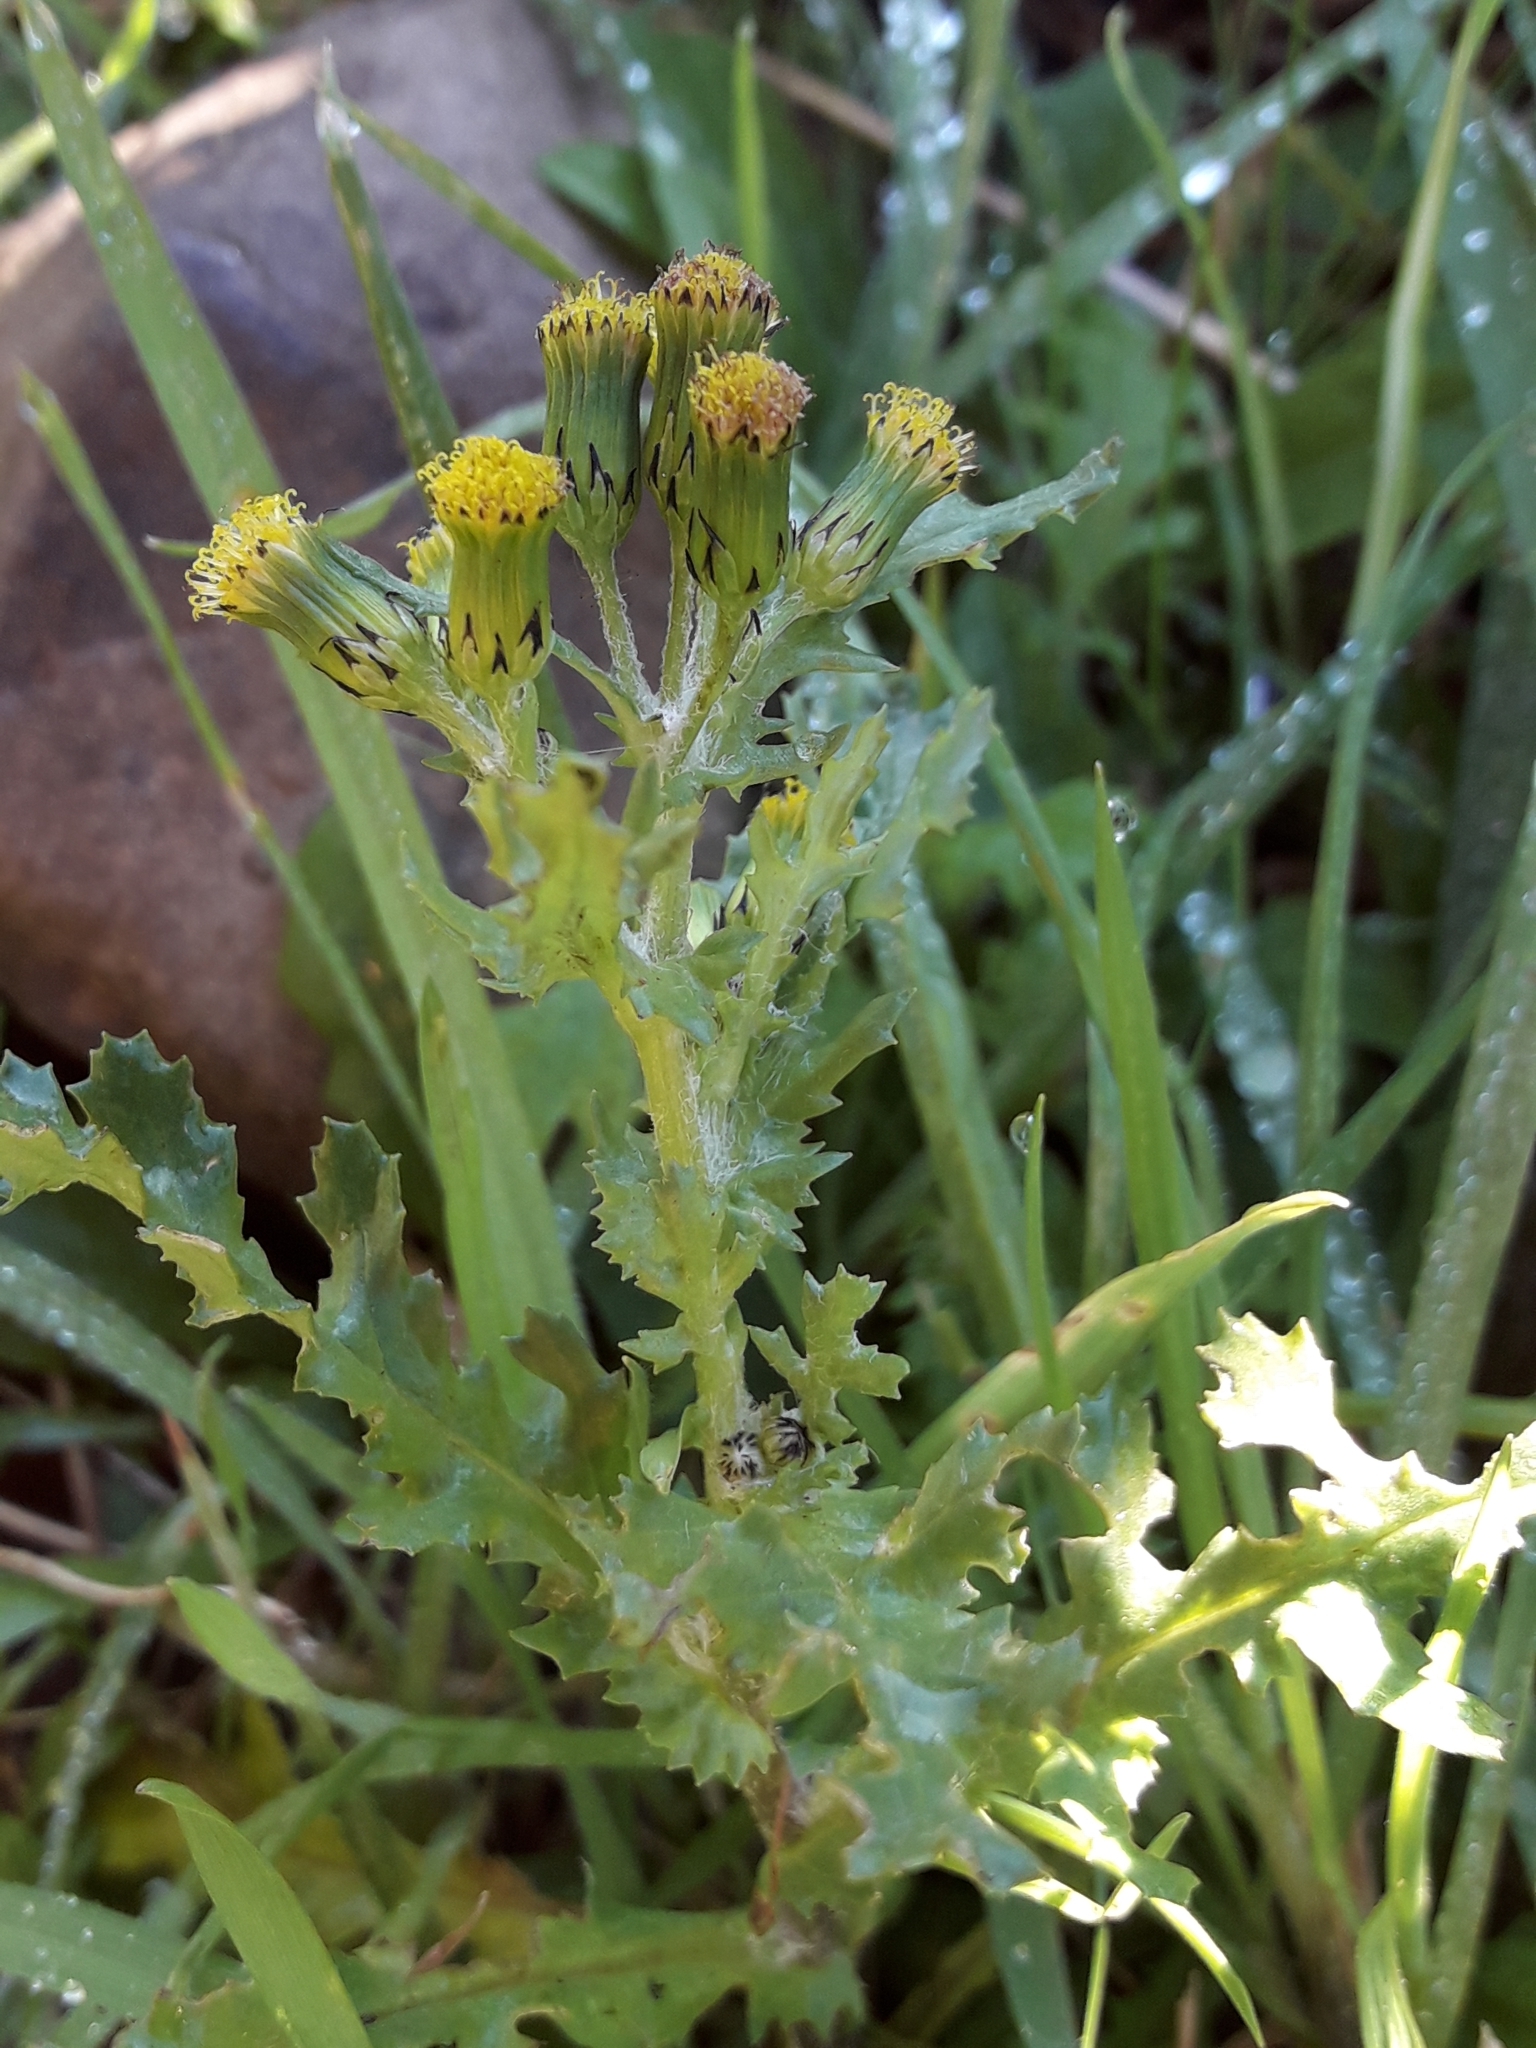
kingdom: Plantae
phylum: Tracheophyta
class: Magnoliopsida
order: Asterales
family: Asteraceae
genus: Senecio
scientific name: Senecio vulgaris
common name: Old-man-in-the-spring
